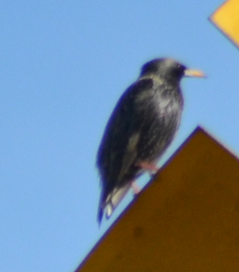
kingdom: Animalia
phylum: Chordata
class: Aves
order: Passeriformes
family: Sturnidae
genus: Sturnus
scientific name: Sturnus unicolor
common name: Spotless starling
